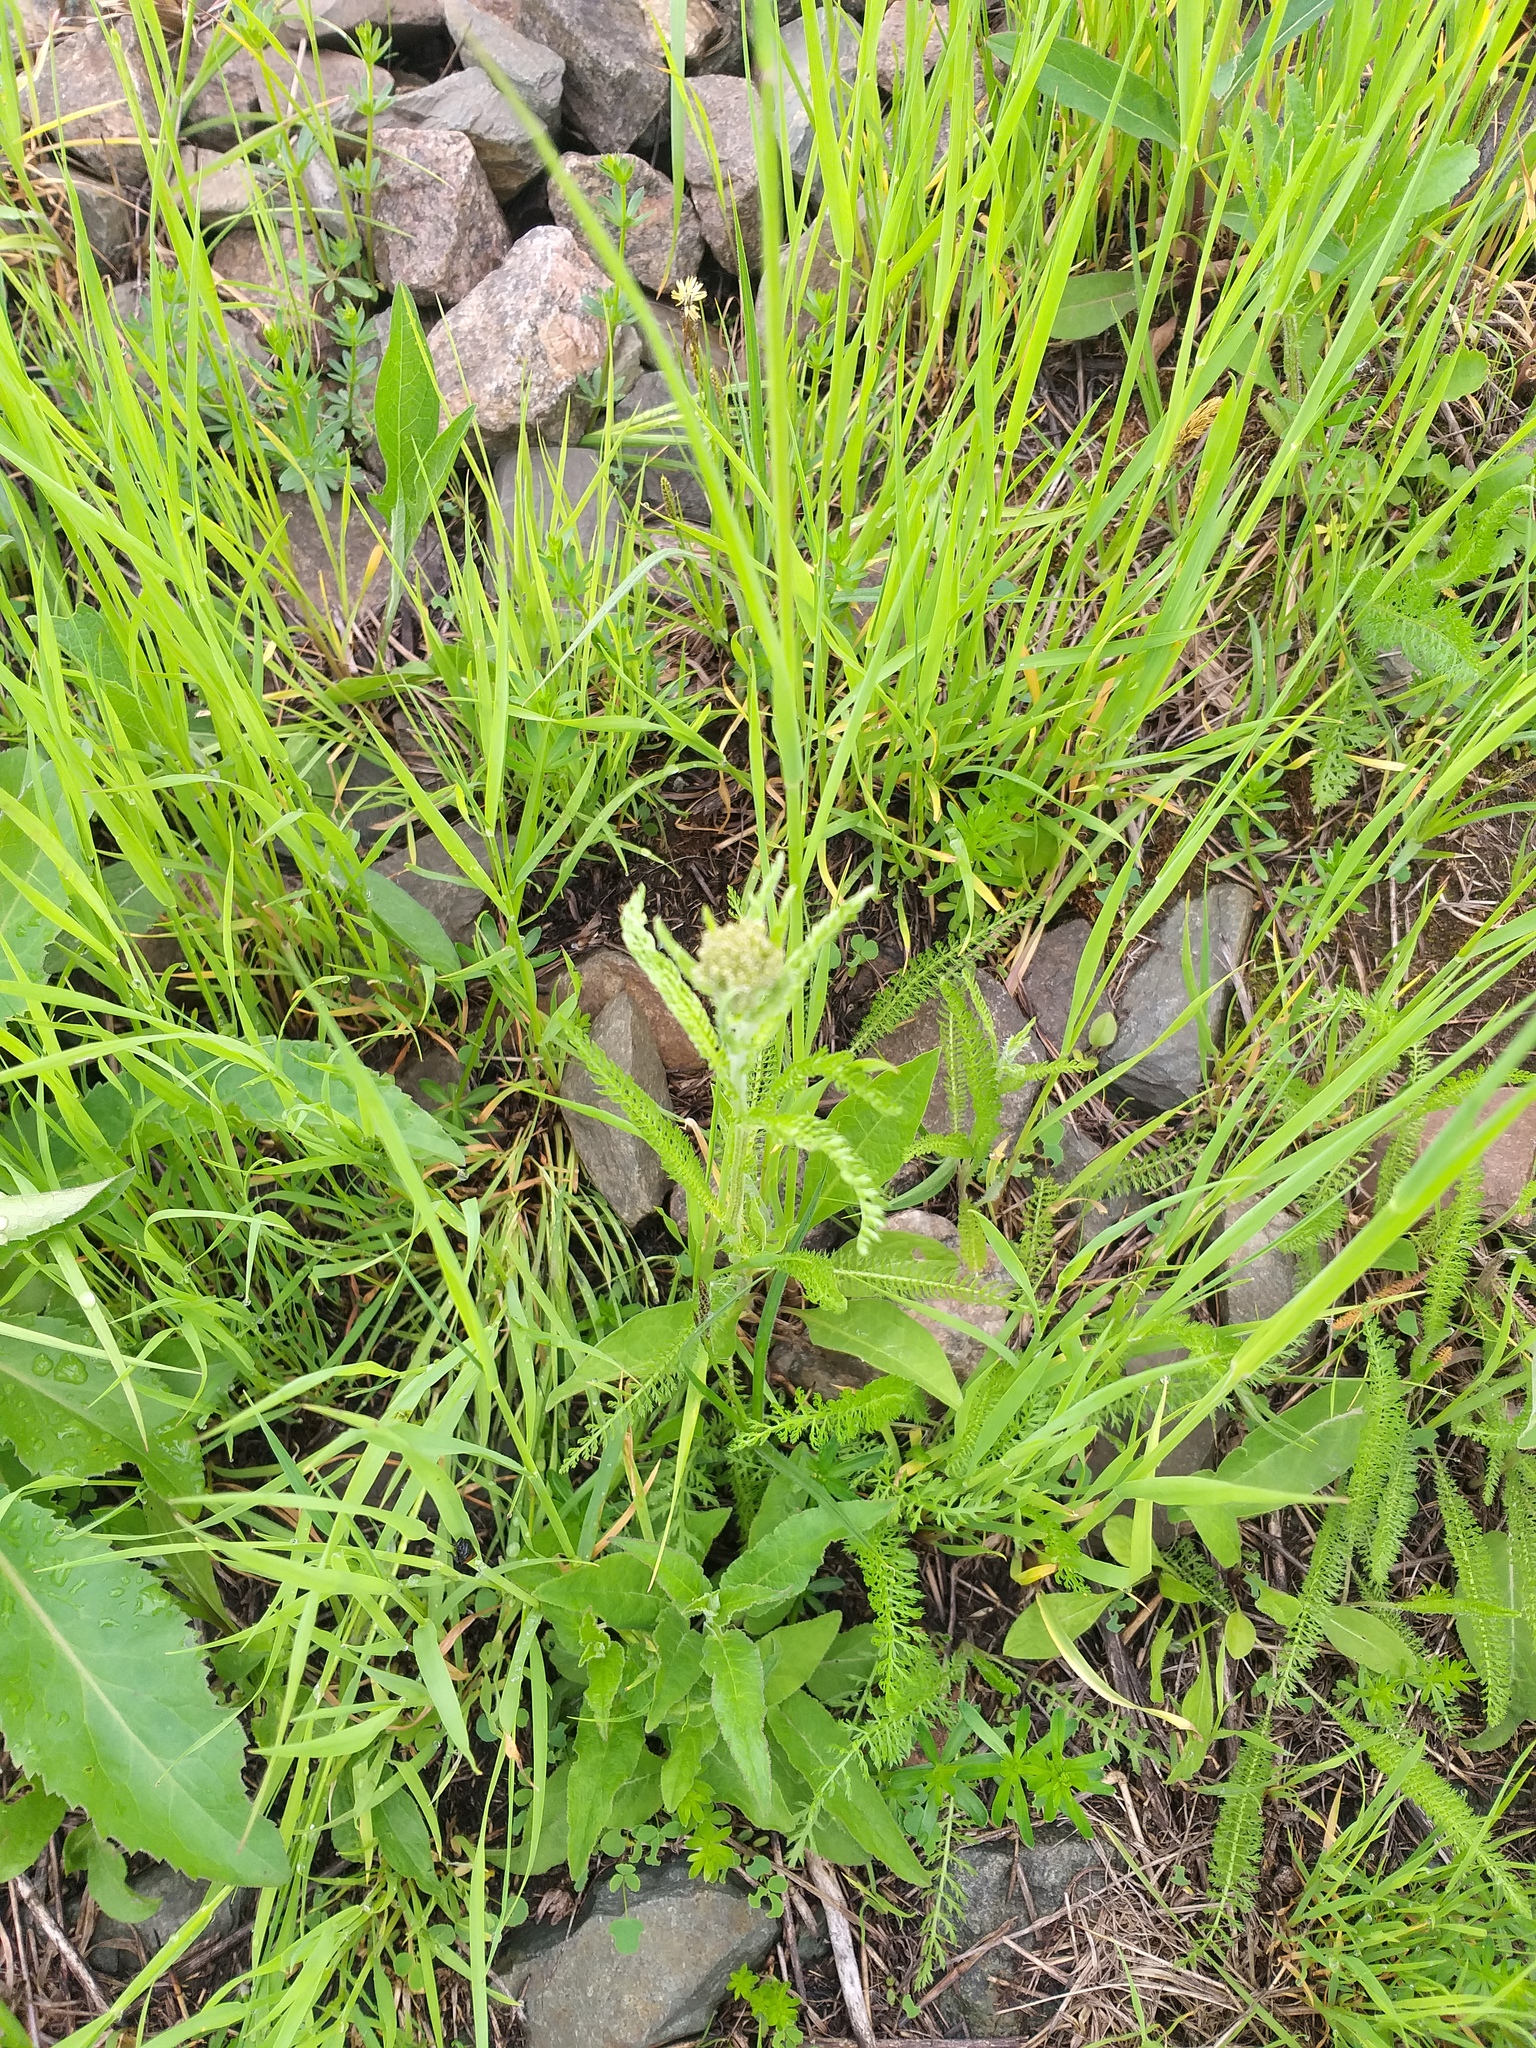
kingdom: Plantae
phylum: Tracheophyta
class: Magnoliopsida
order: Asterales
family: Asteraceae
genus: Achillea
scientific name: Achillea millefolium
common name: Yarrow
